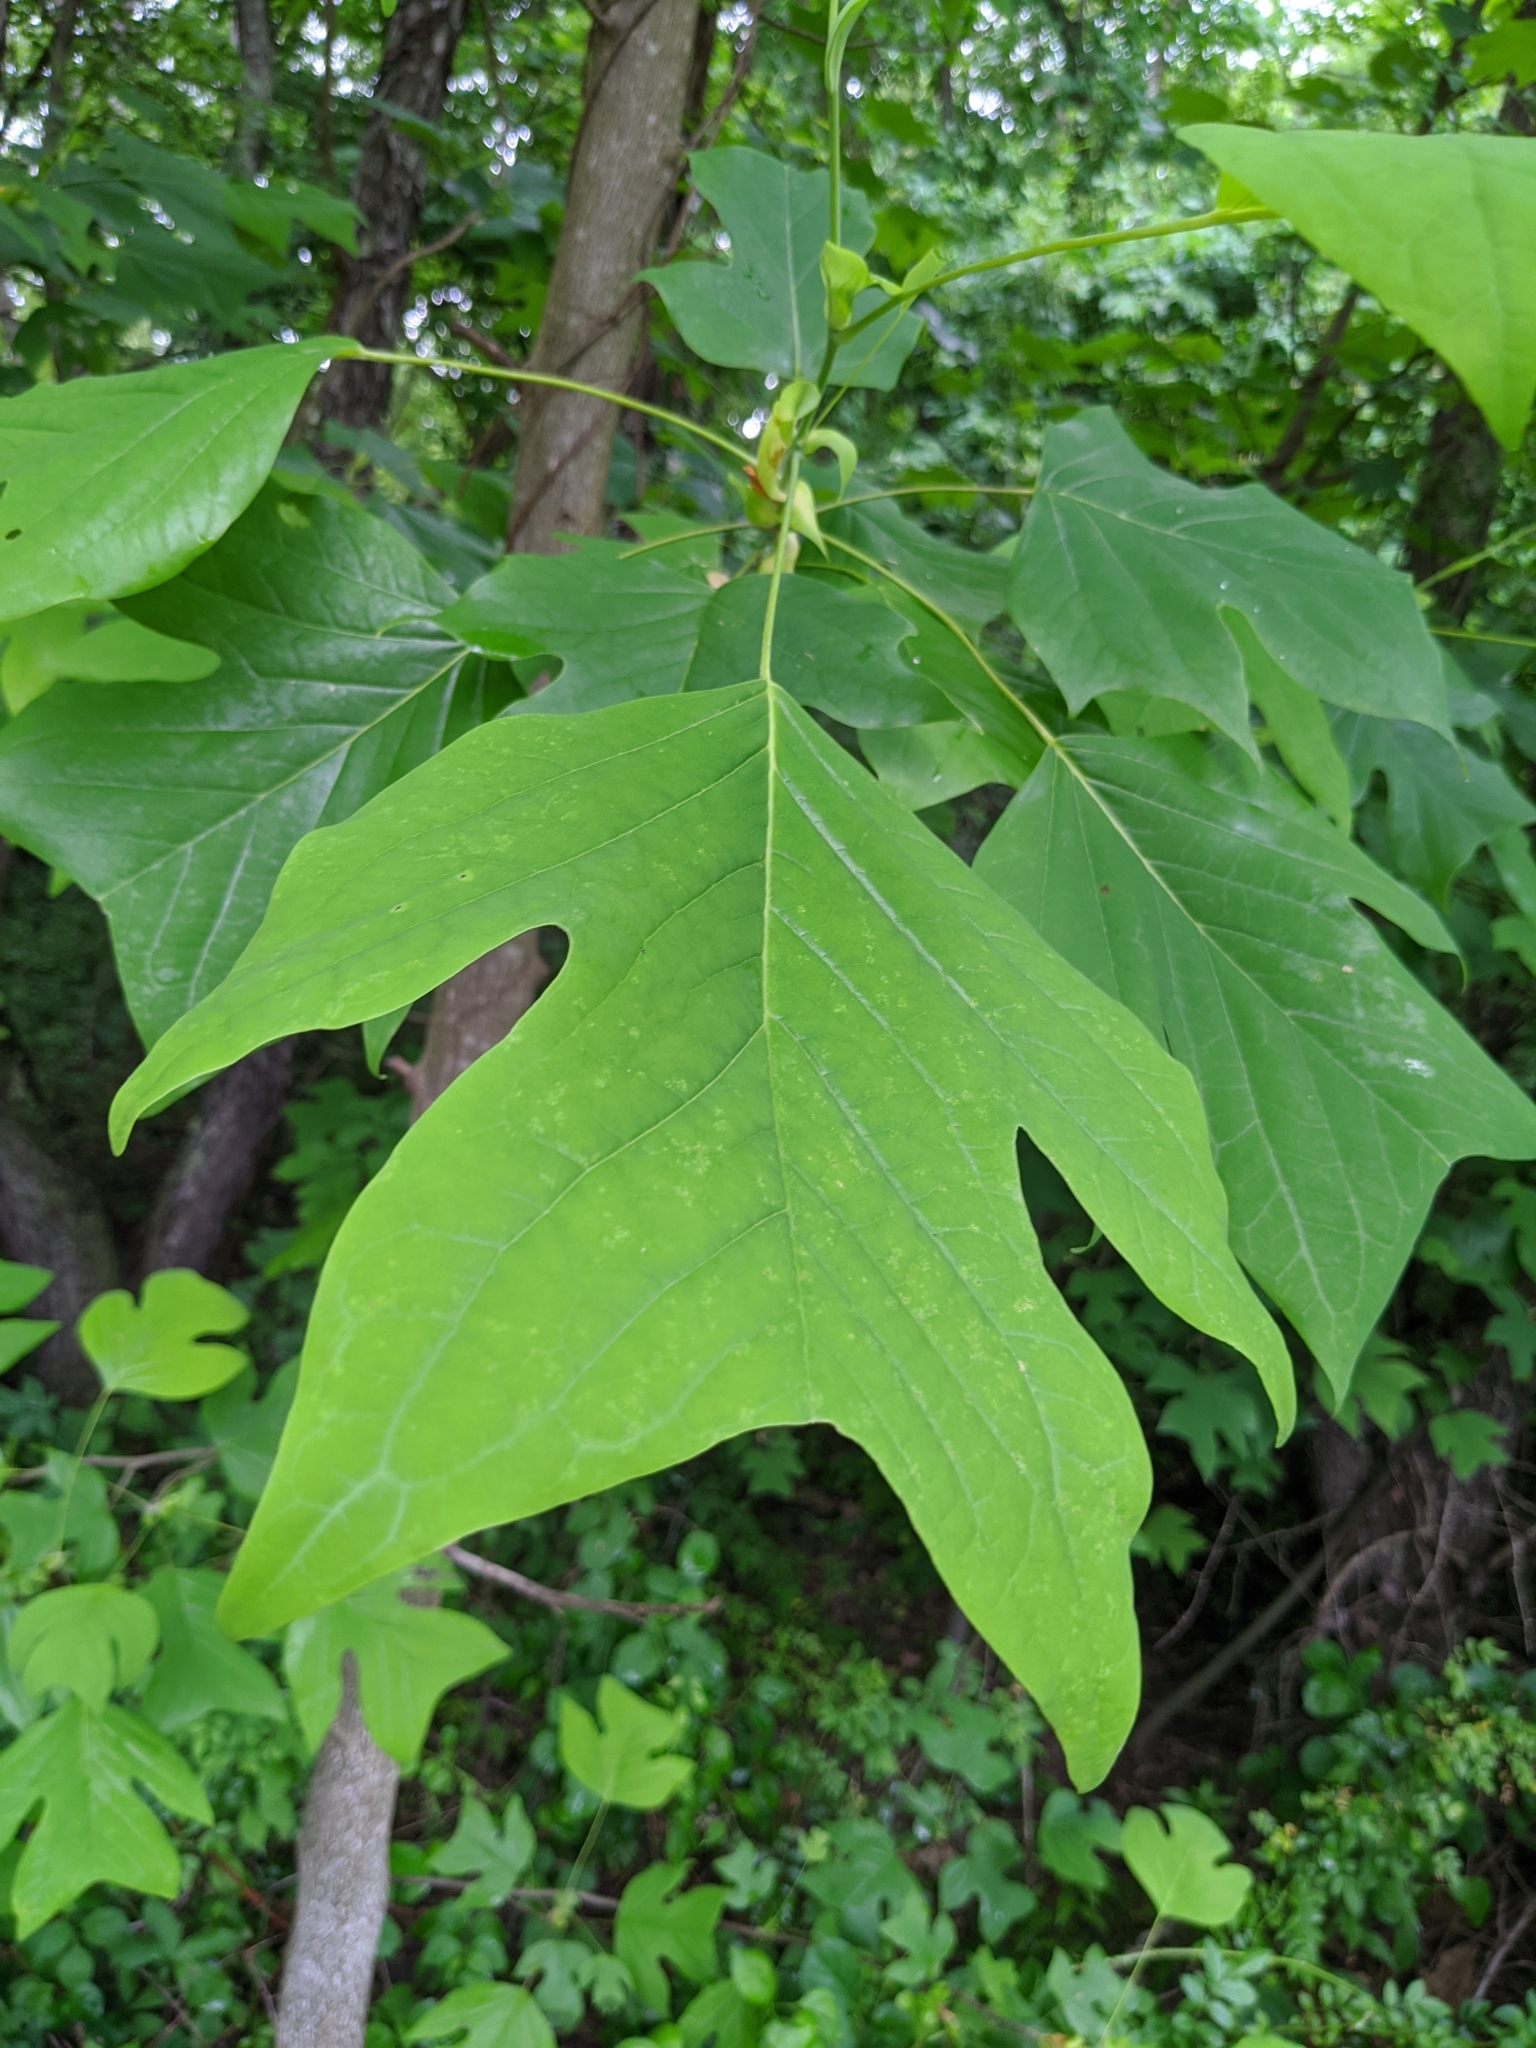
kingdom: Plantae
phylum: Tracheophyta
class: Magnoliopsida
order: Magnoliales
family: Magnoliaceae
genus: Liriodendron
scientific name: Liriodendron tulipifera
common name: Tulip tree
